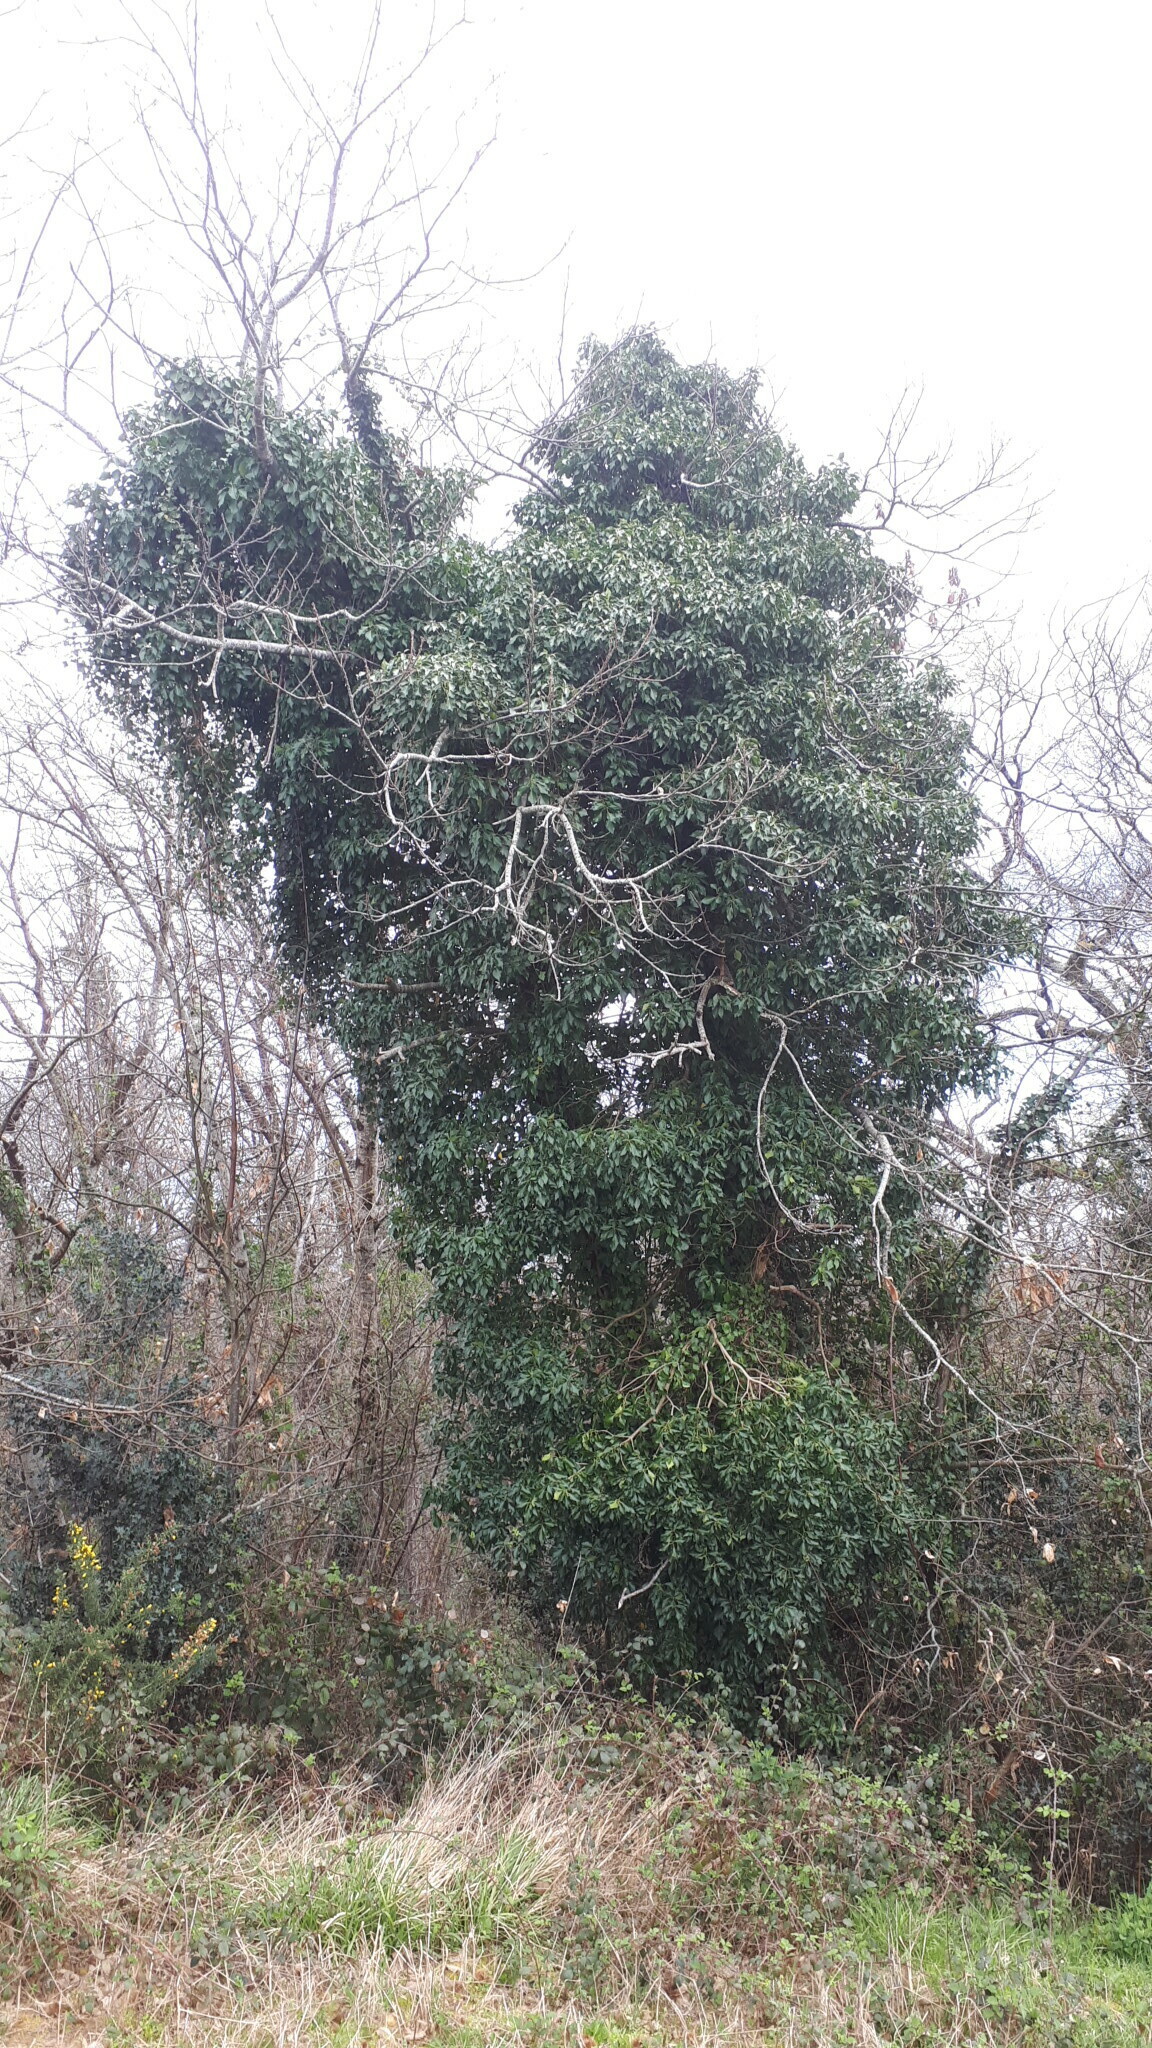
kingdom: Plantae
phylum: Tracheophyta
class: Magnoliopsida
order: Apiales
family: Araliaceae
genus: Hedera
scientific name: Hedera helix
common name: Ivy
